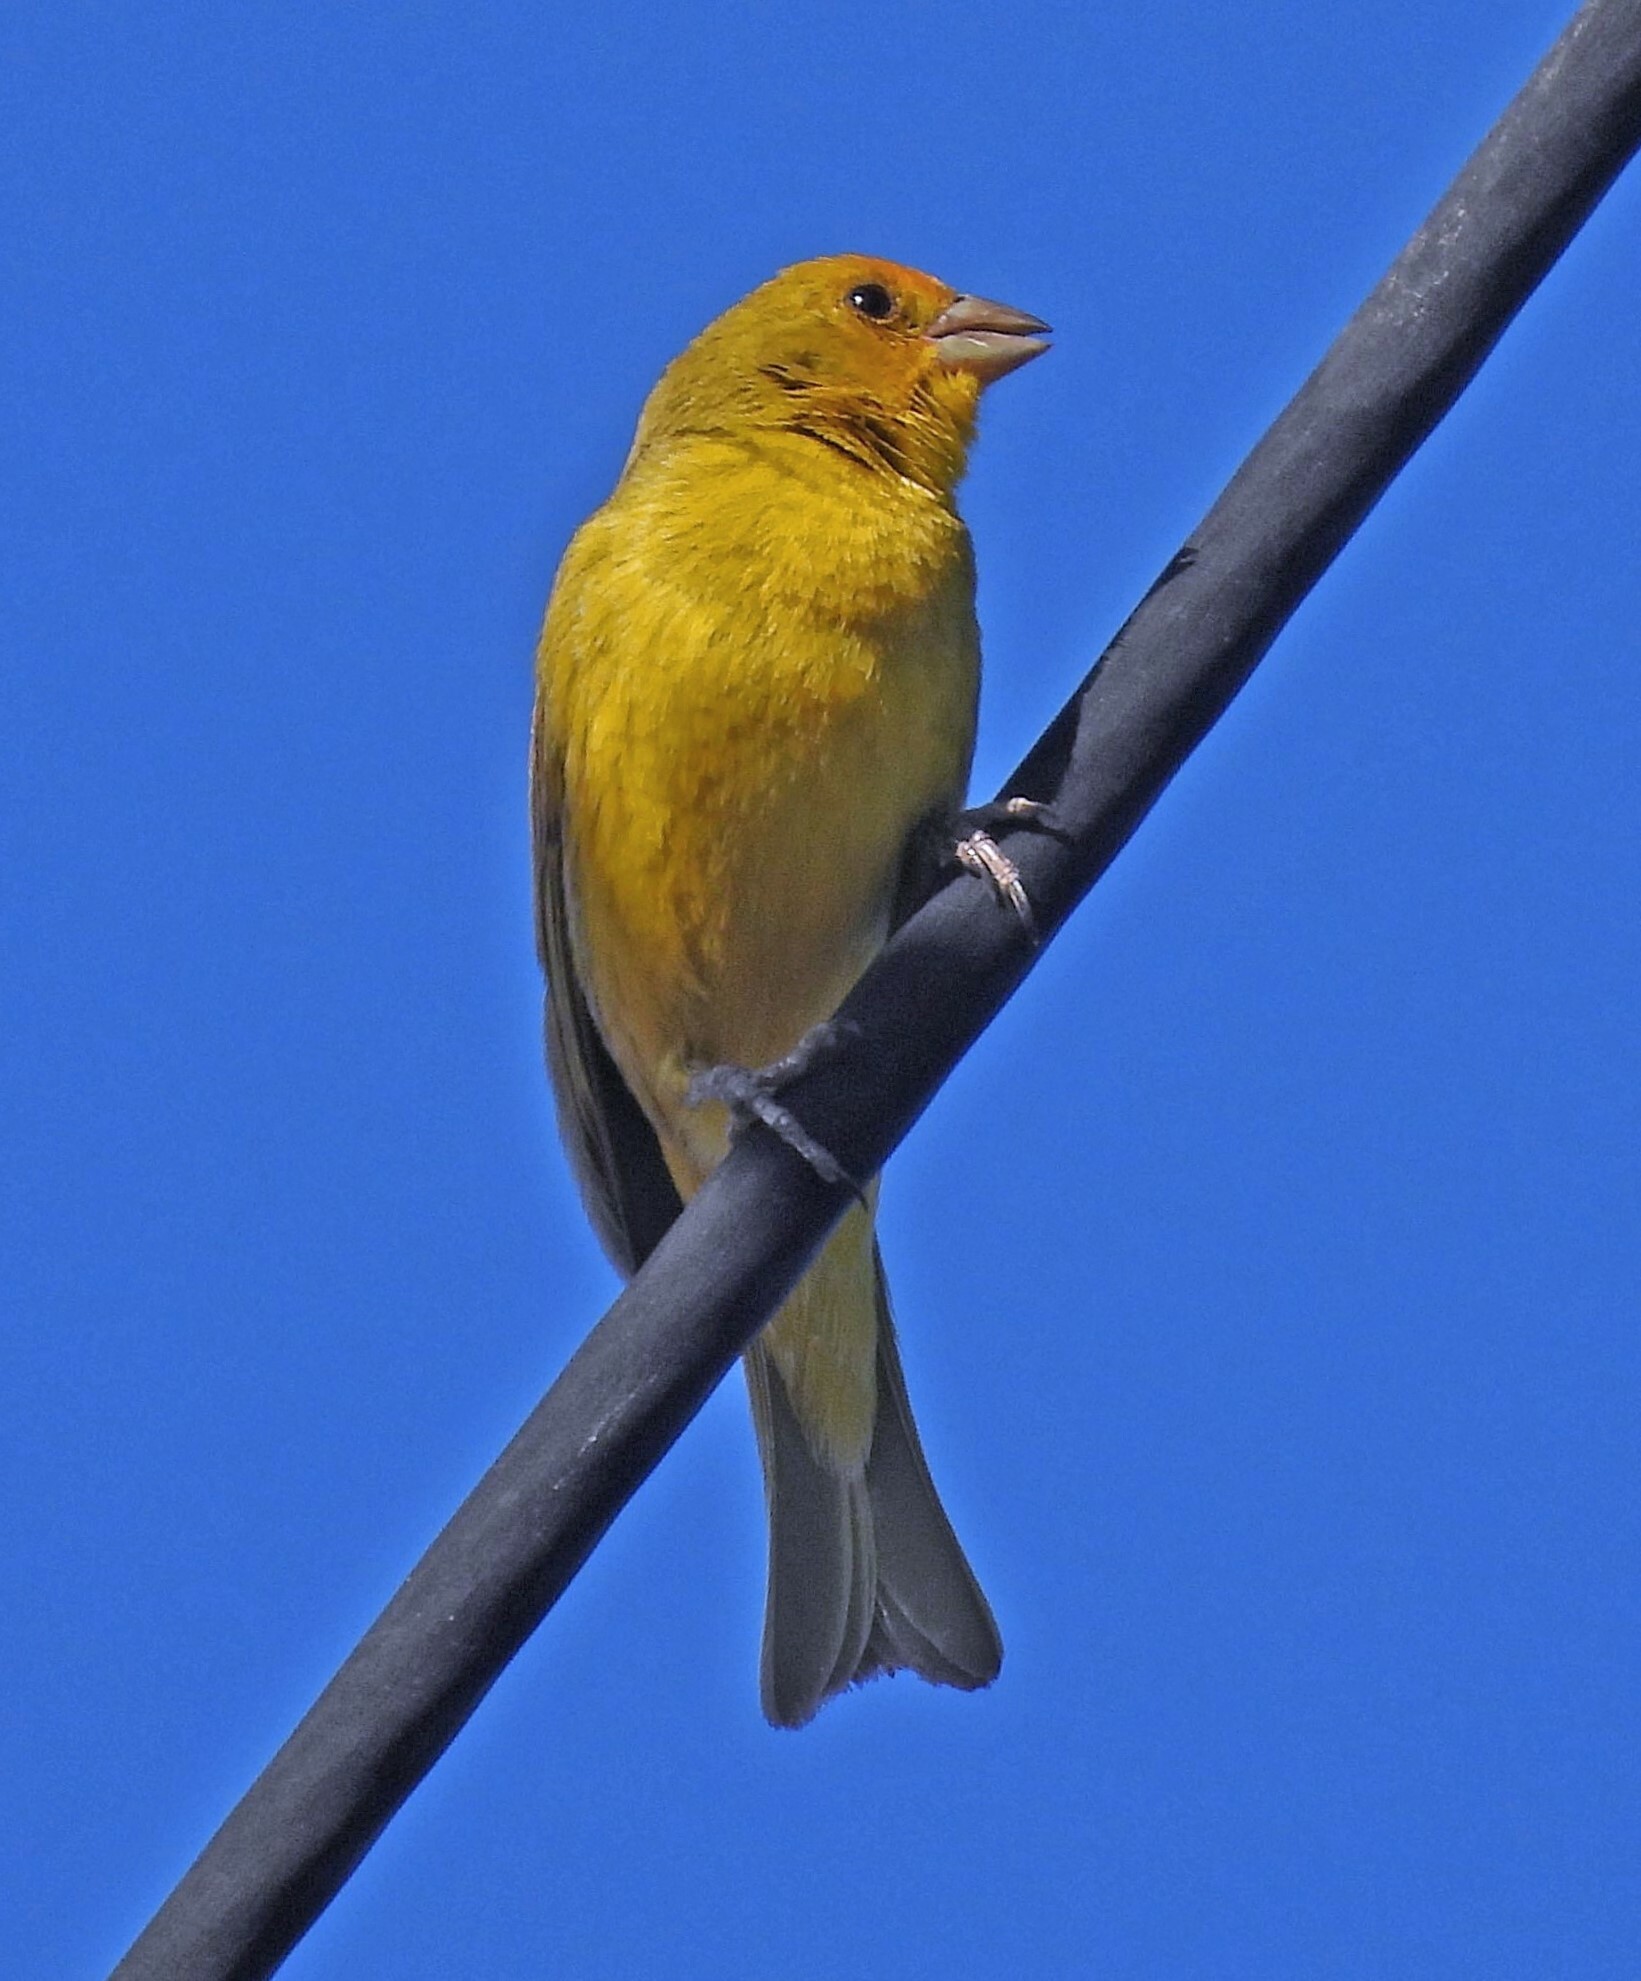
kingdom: Animalia
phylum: Chordata
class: Aves
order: Passeriformes
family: Thraupidae
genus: Sicalis
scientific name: Sicalis flaveola
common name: Saffron finch
